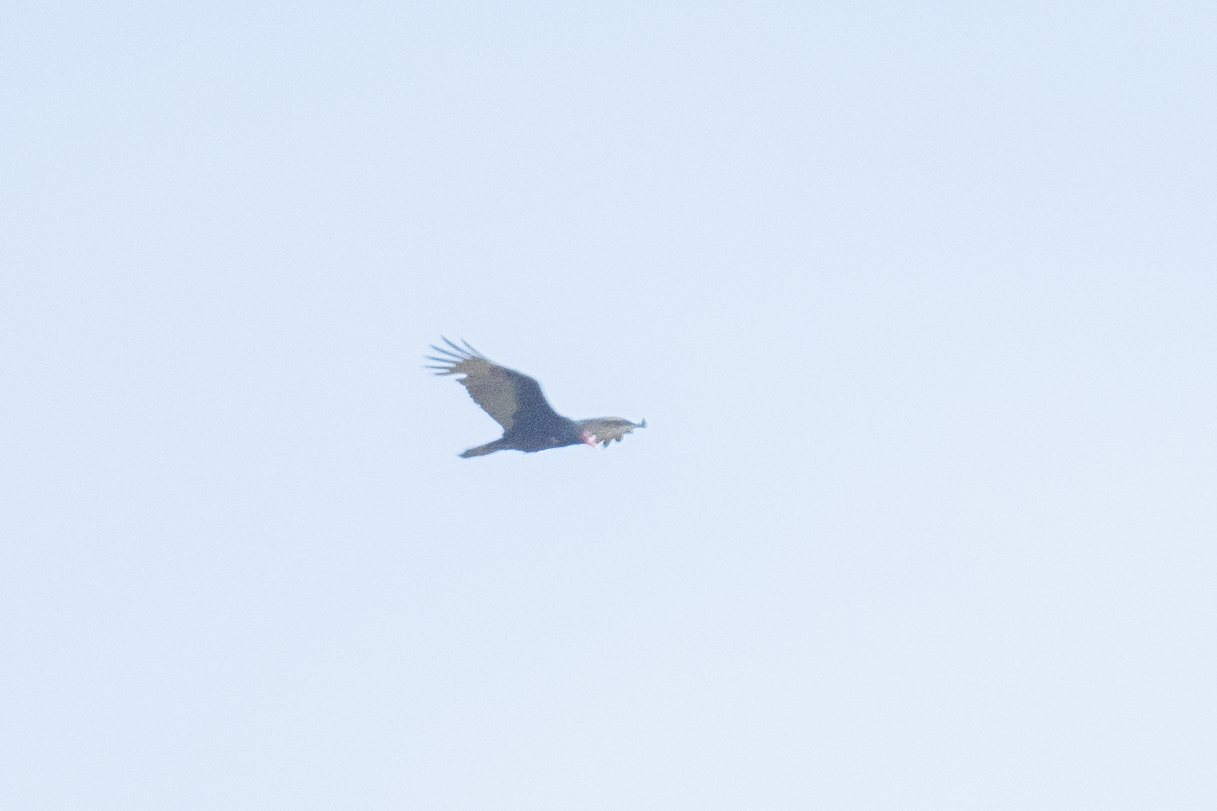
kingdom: Animalia
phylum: Chordata
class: Aves
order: Accipitriformes
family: Cathartidae
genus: Cathartes
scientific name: Cathartes aura
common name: Turkey vulture
